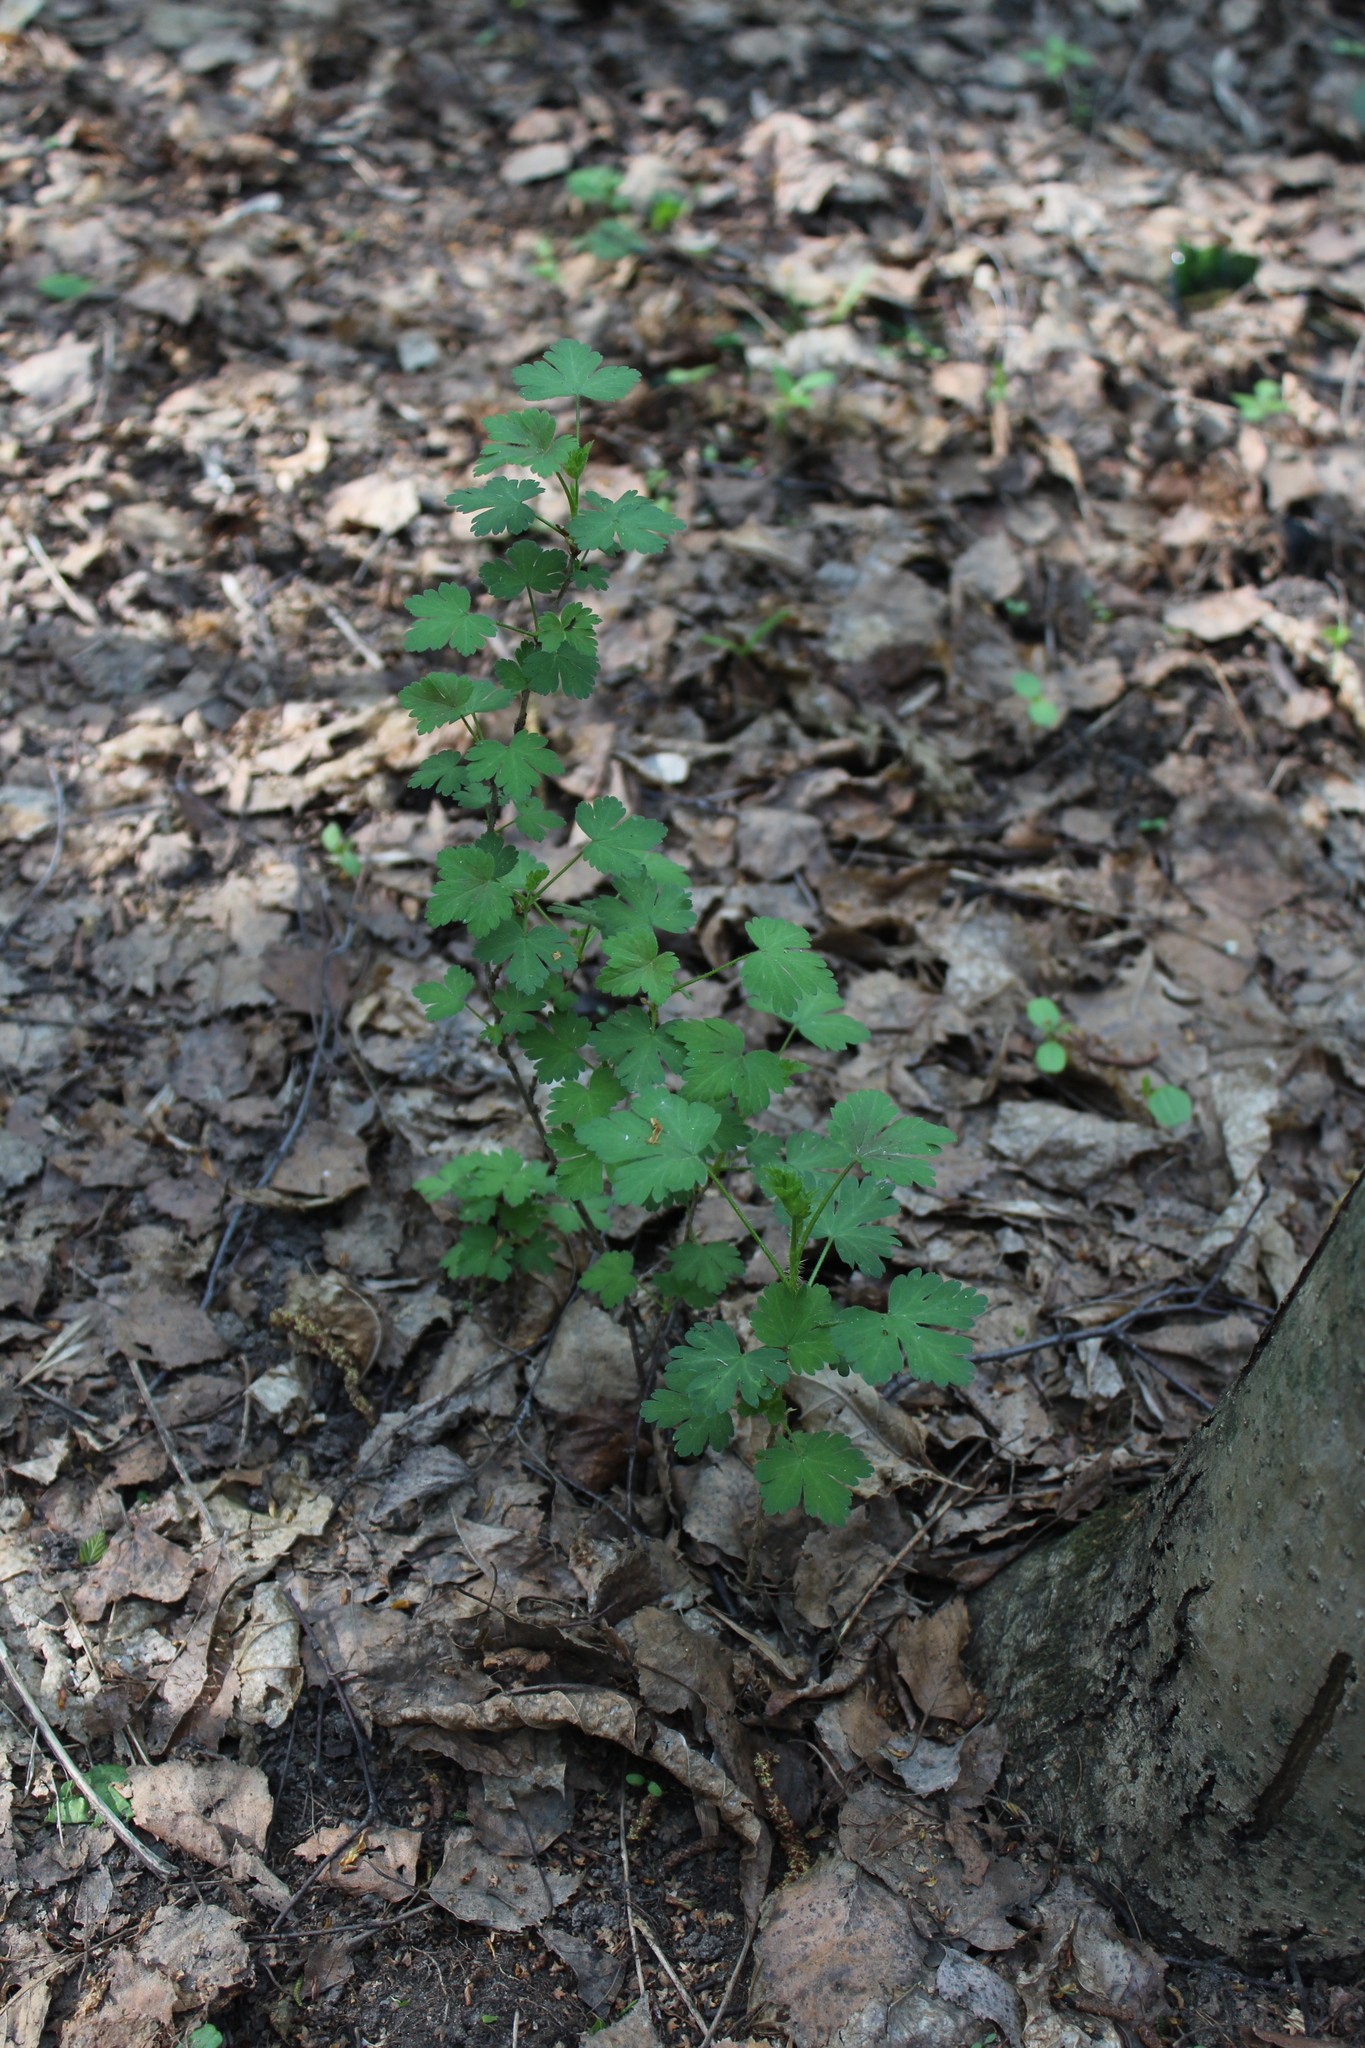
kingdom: Plantae
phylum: Tracheophyta
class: Magnoliopsida
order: Saxifragales
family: Grossulariaceae
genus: Ribes
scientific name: Ribes uva-crispa
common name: Gooseberry
